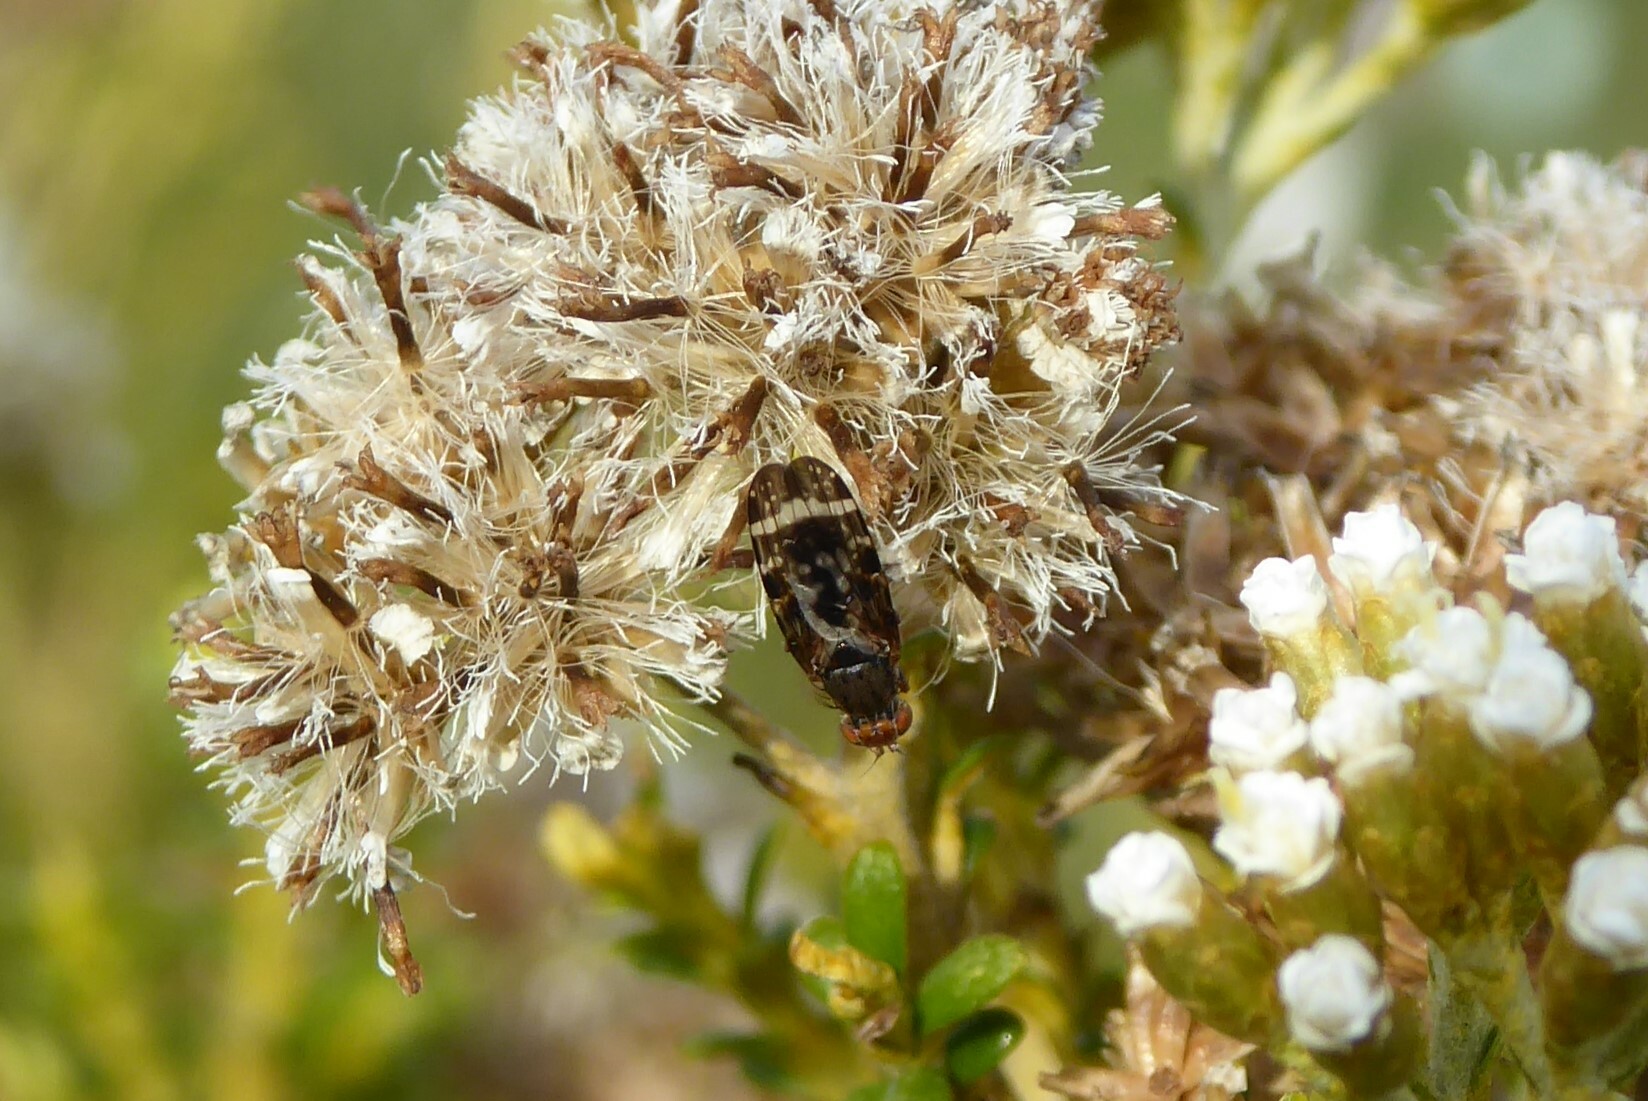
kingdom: Animalia
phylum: Arthropoda
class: Insecta
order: Diptera
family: Tephritidae
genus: Sphenella
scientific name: Sphenella
